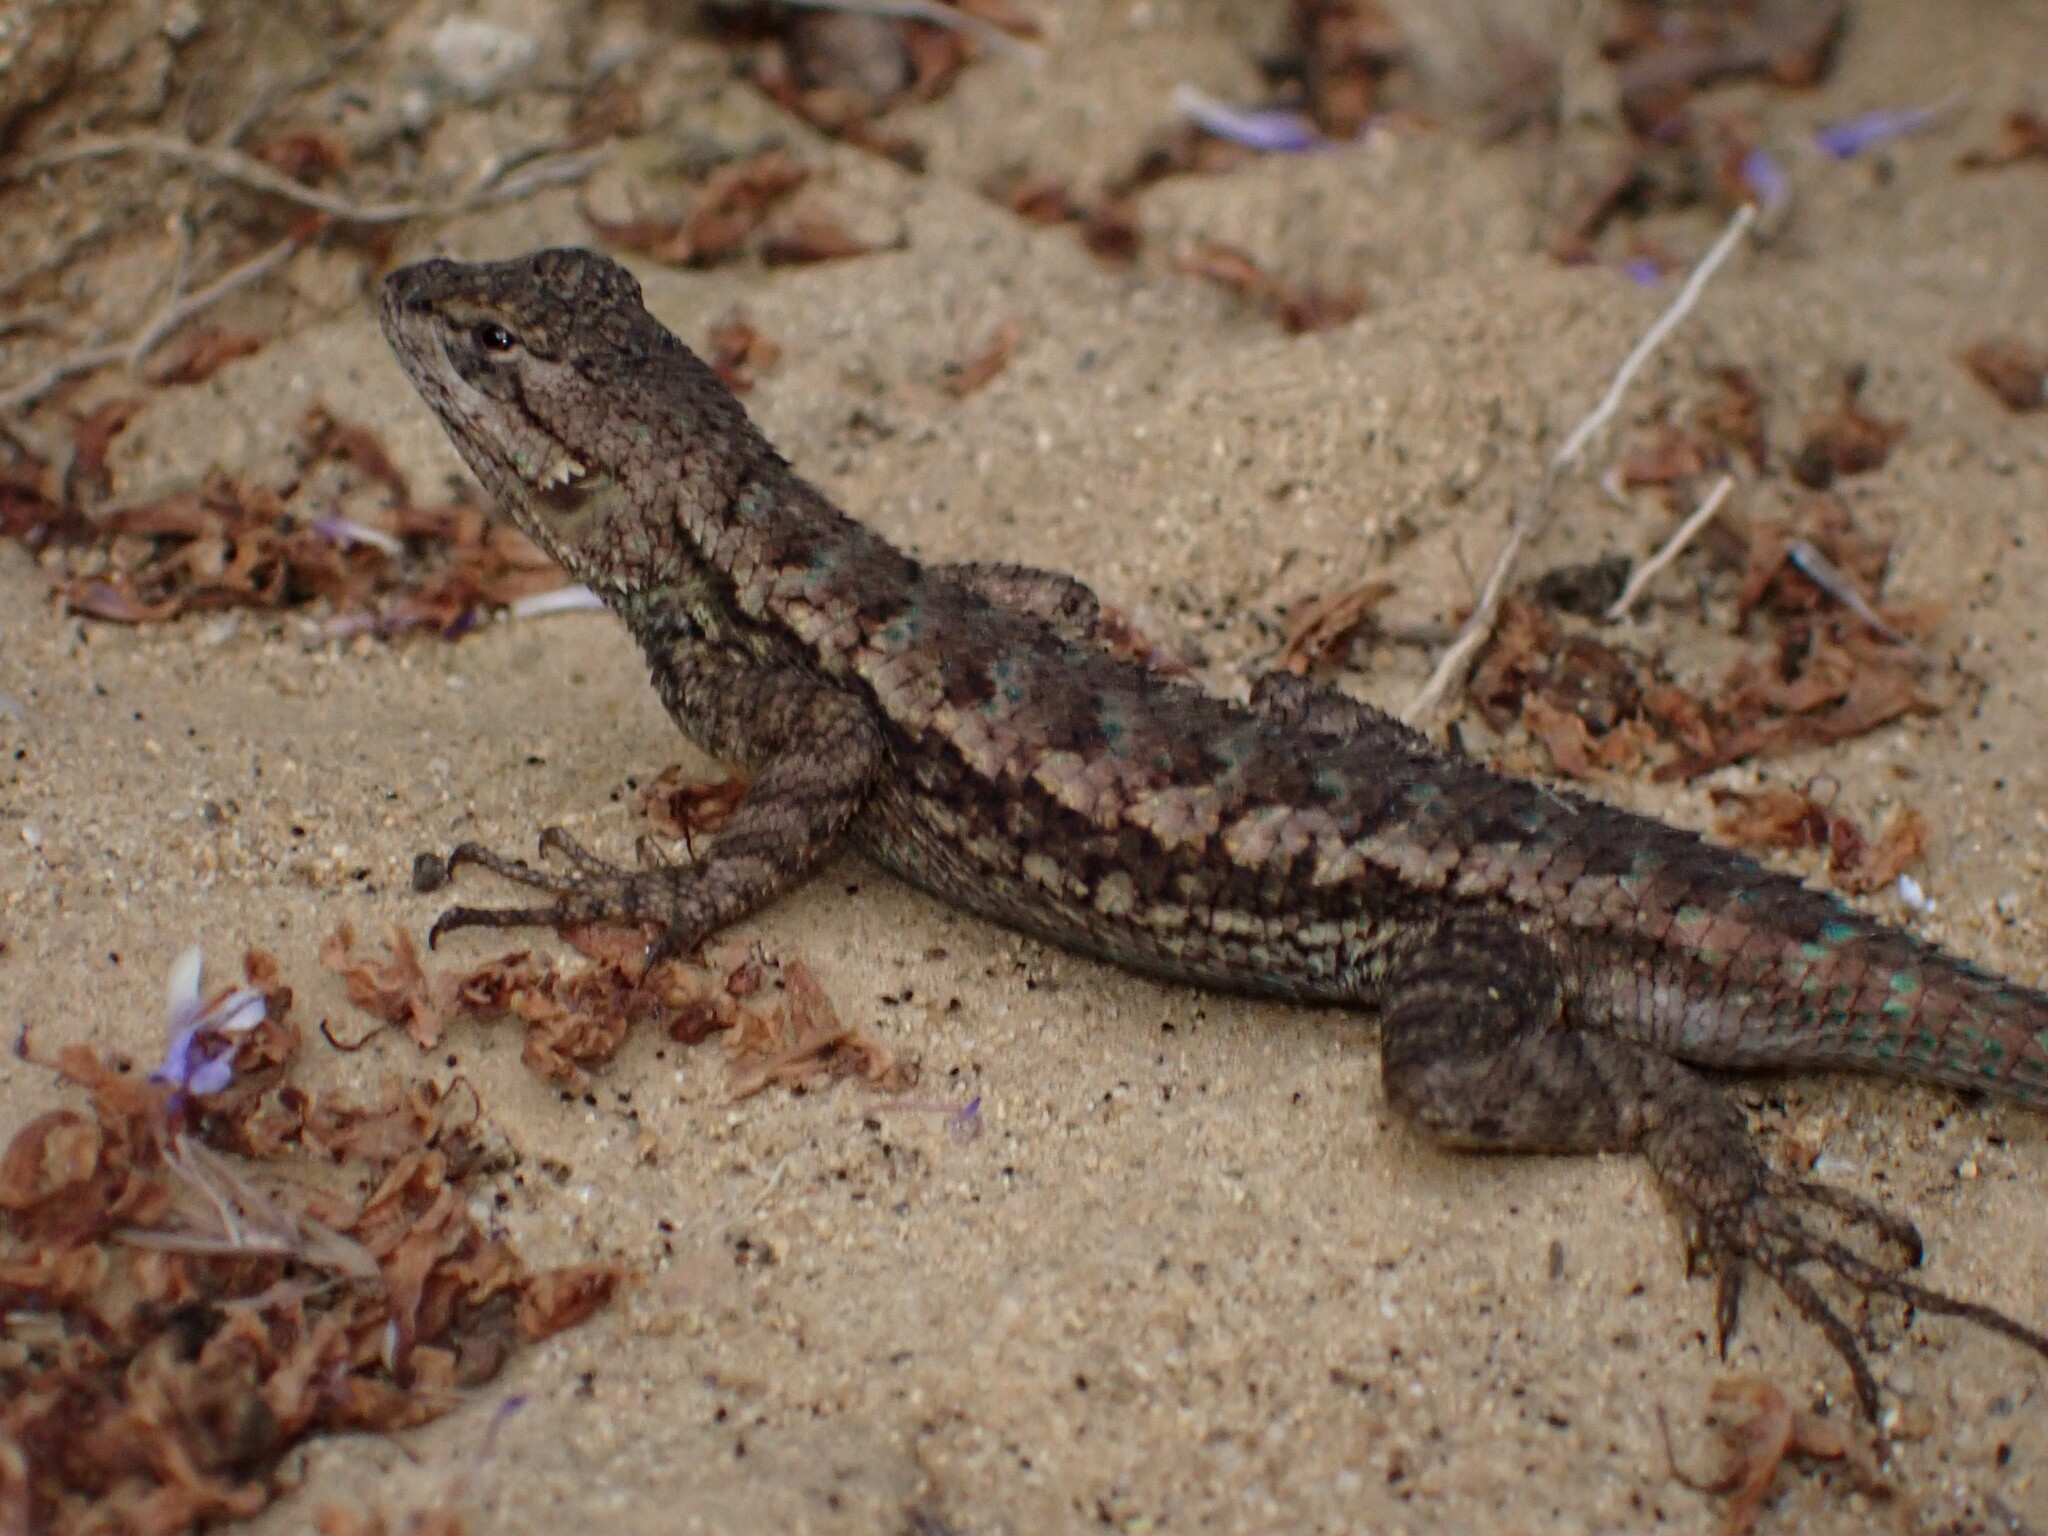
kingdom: Animalia
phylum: Chordata
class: Squamata
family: Phrynosomatidae
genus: Sceloporus
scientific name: Sceloporus occidentalis
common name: Western fence lizard
